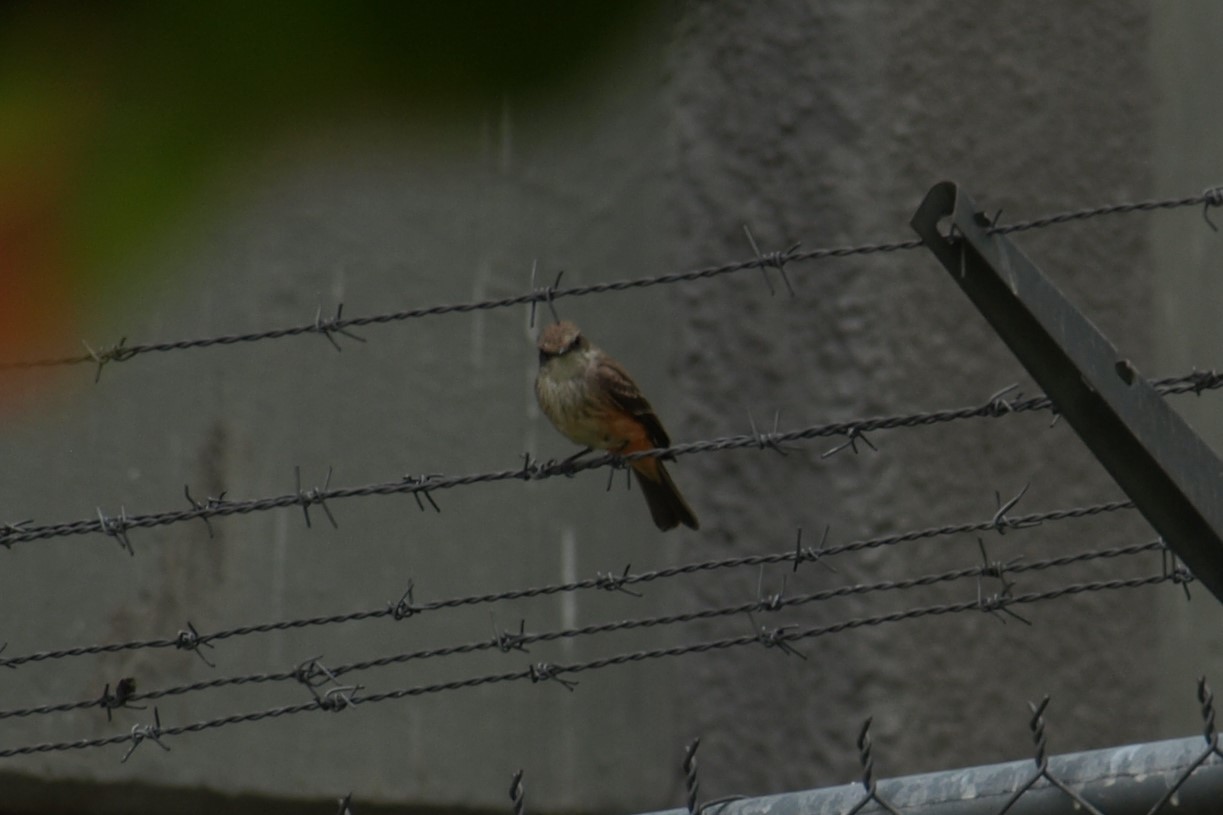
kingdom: Animalia
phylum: Chordata
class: Aves
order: Passeriformes
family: Tyrannidae
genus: Pyrocephalus
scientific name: Pyrocephalus rubinus
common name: Vermilion flycatcher
